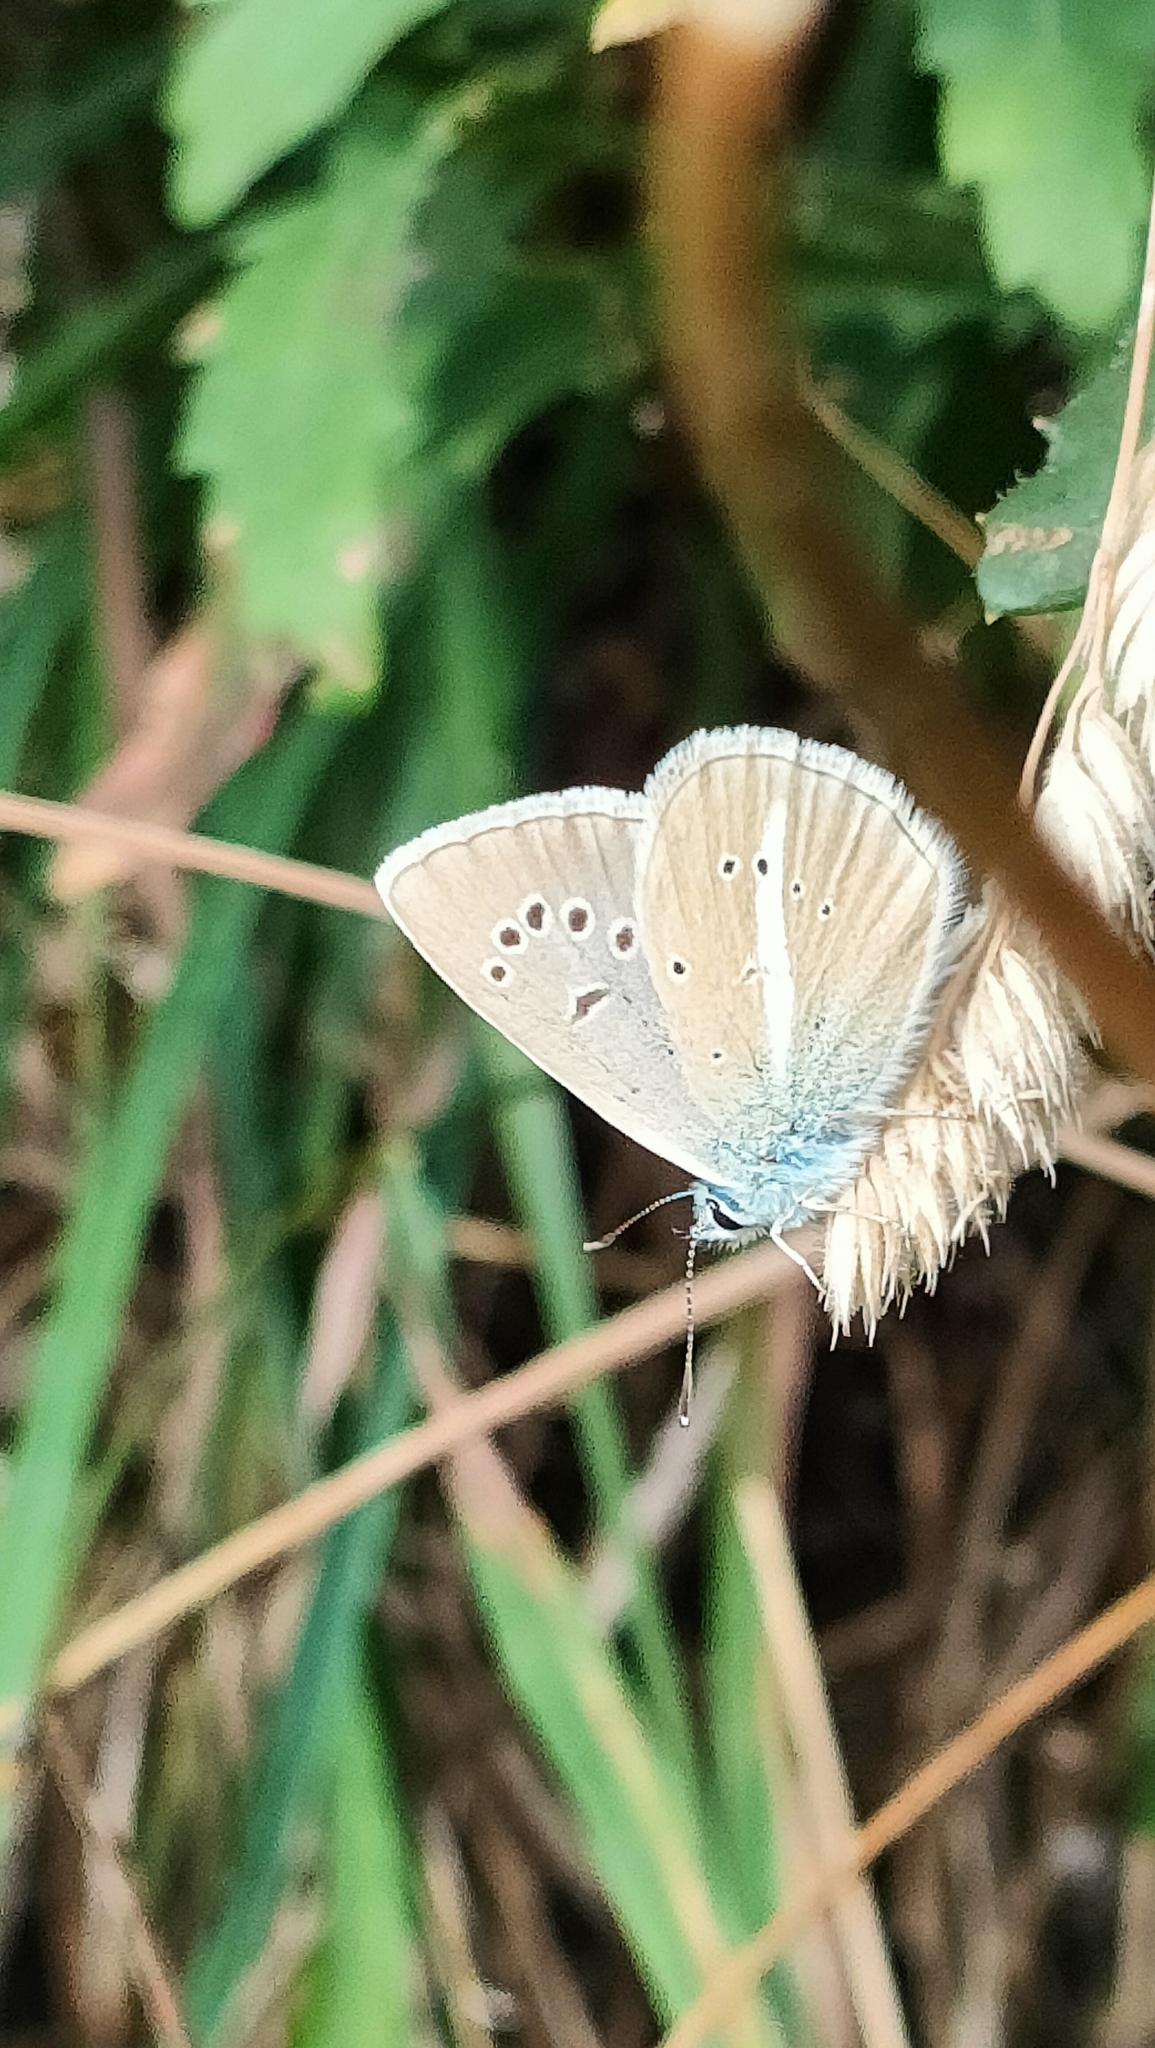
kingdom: Animalia
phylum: Arthropoda
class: Insecta
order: Lepidoptera
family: Lycaenidae
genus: Agrodiaetus
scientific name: Agrodiaetus damon
